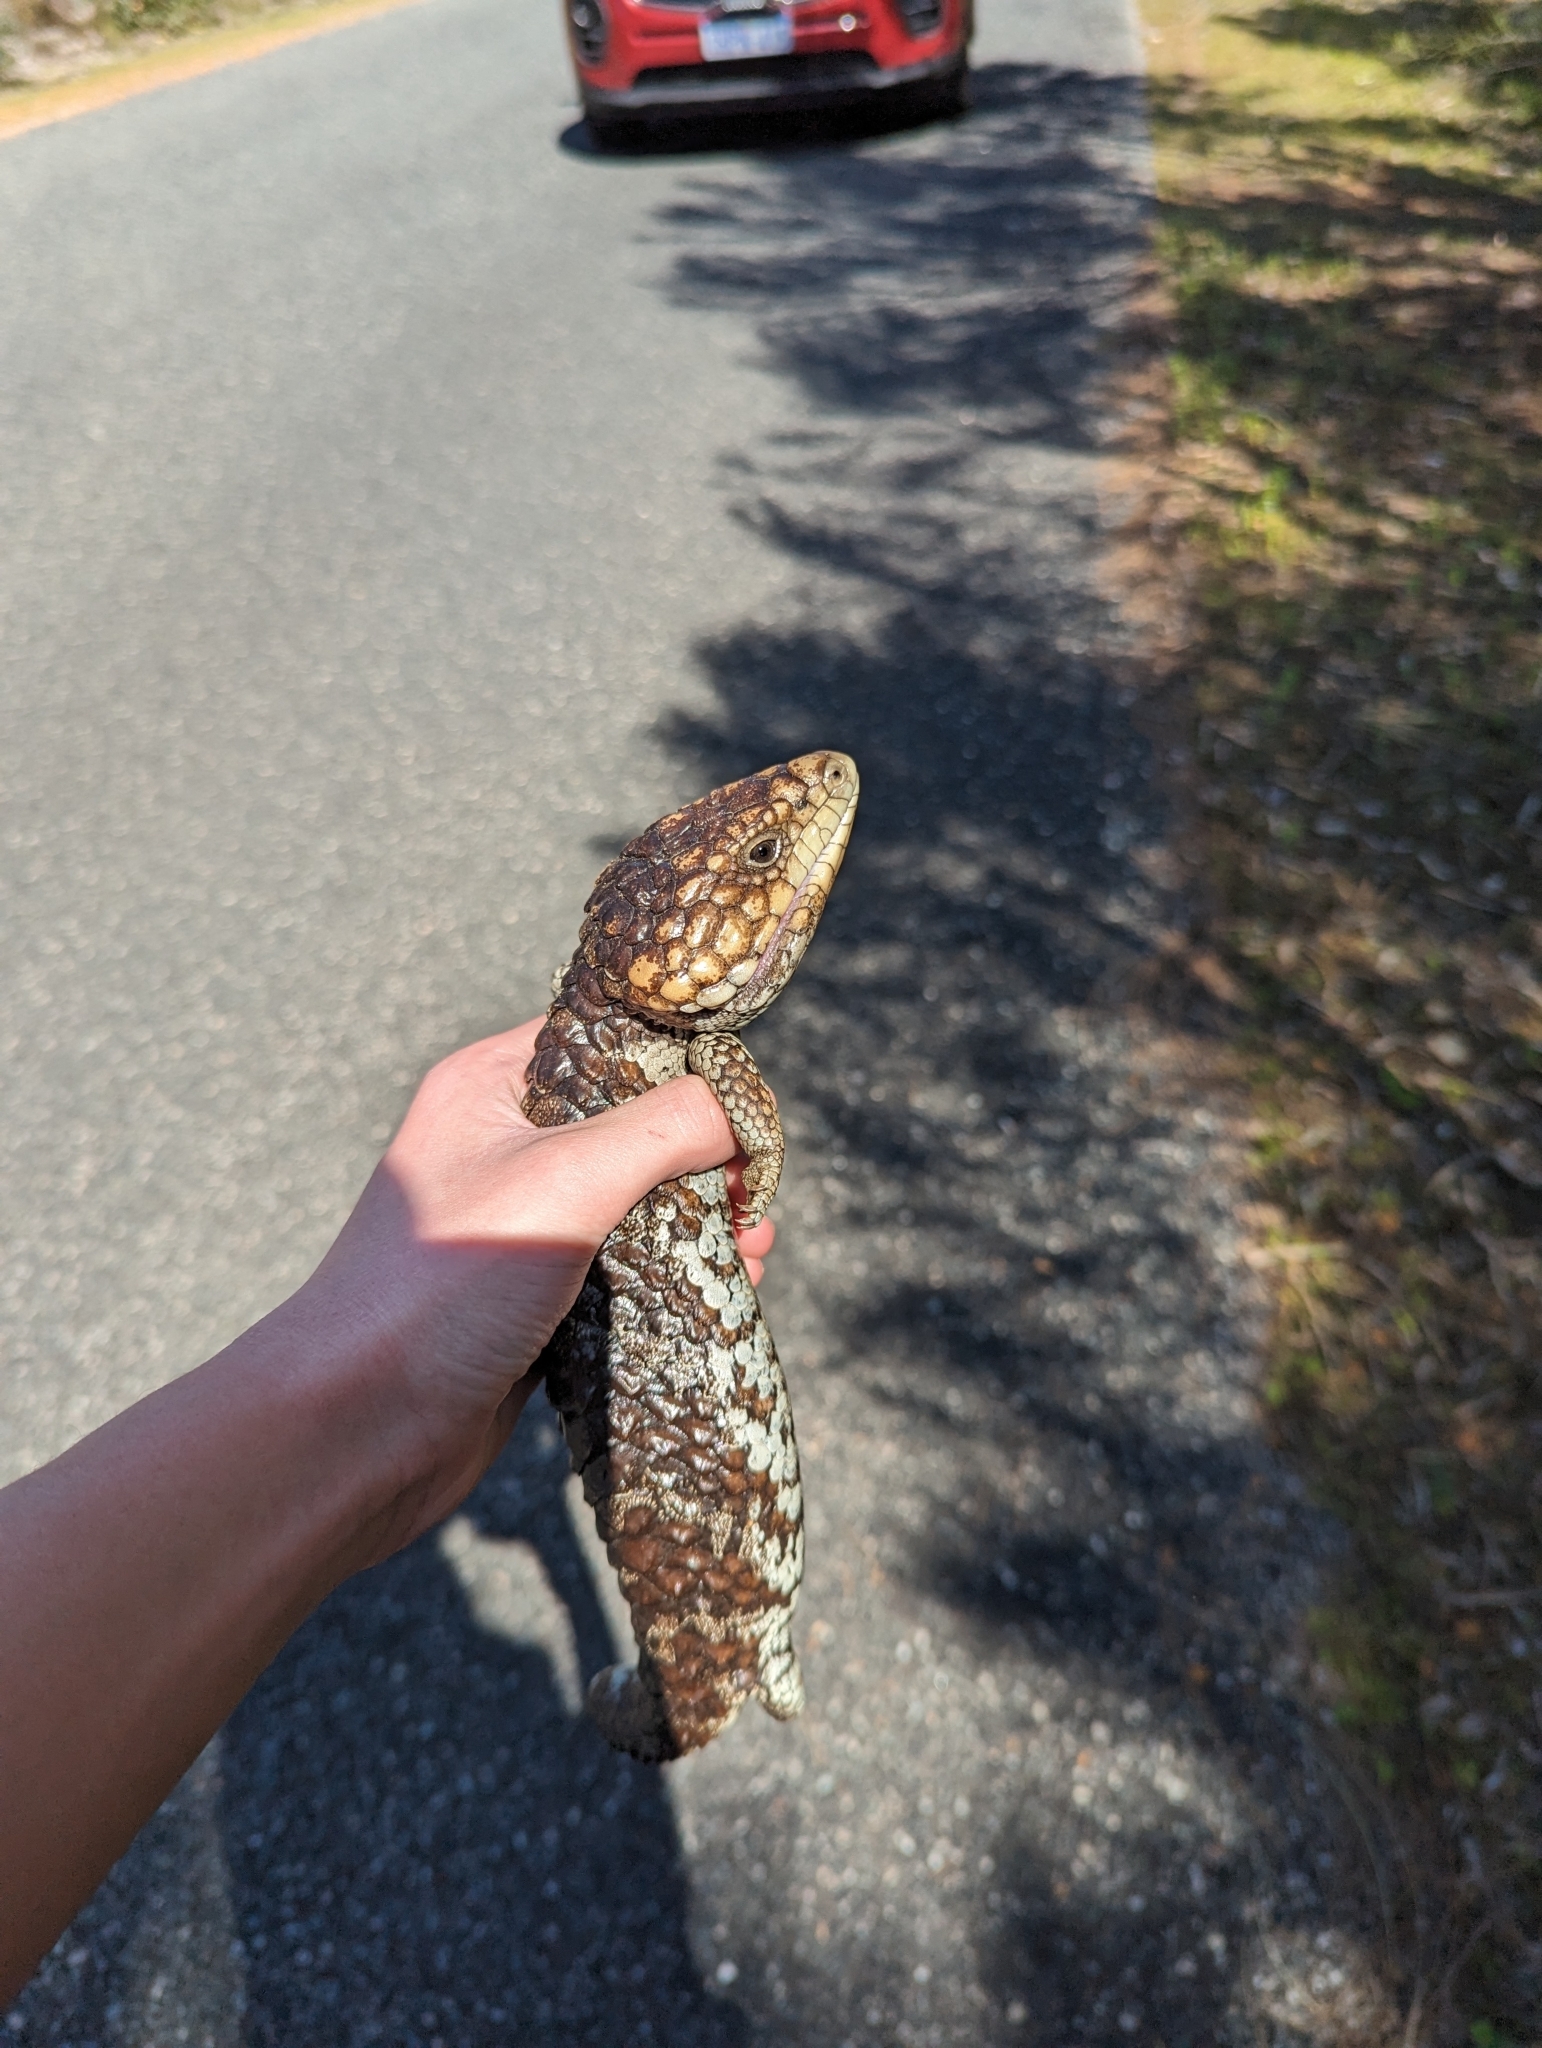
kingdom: Animalia
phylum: Chordata
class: Squamata
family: Scincidae
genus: Tiliqua
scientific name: Tiliqua rugosa
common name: Pinecone lizard
